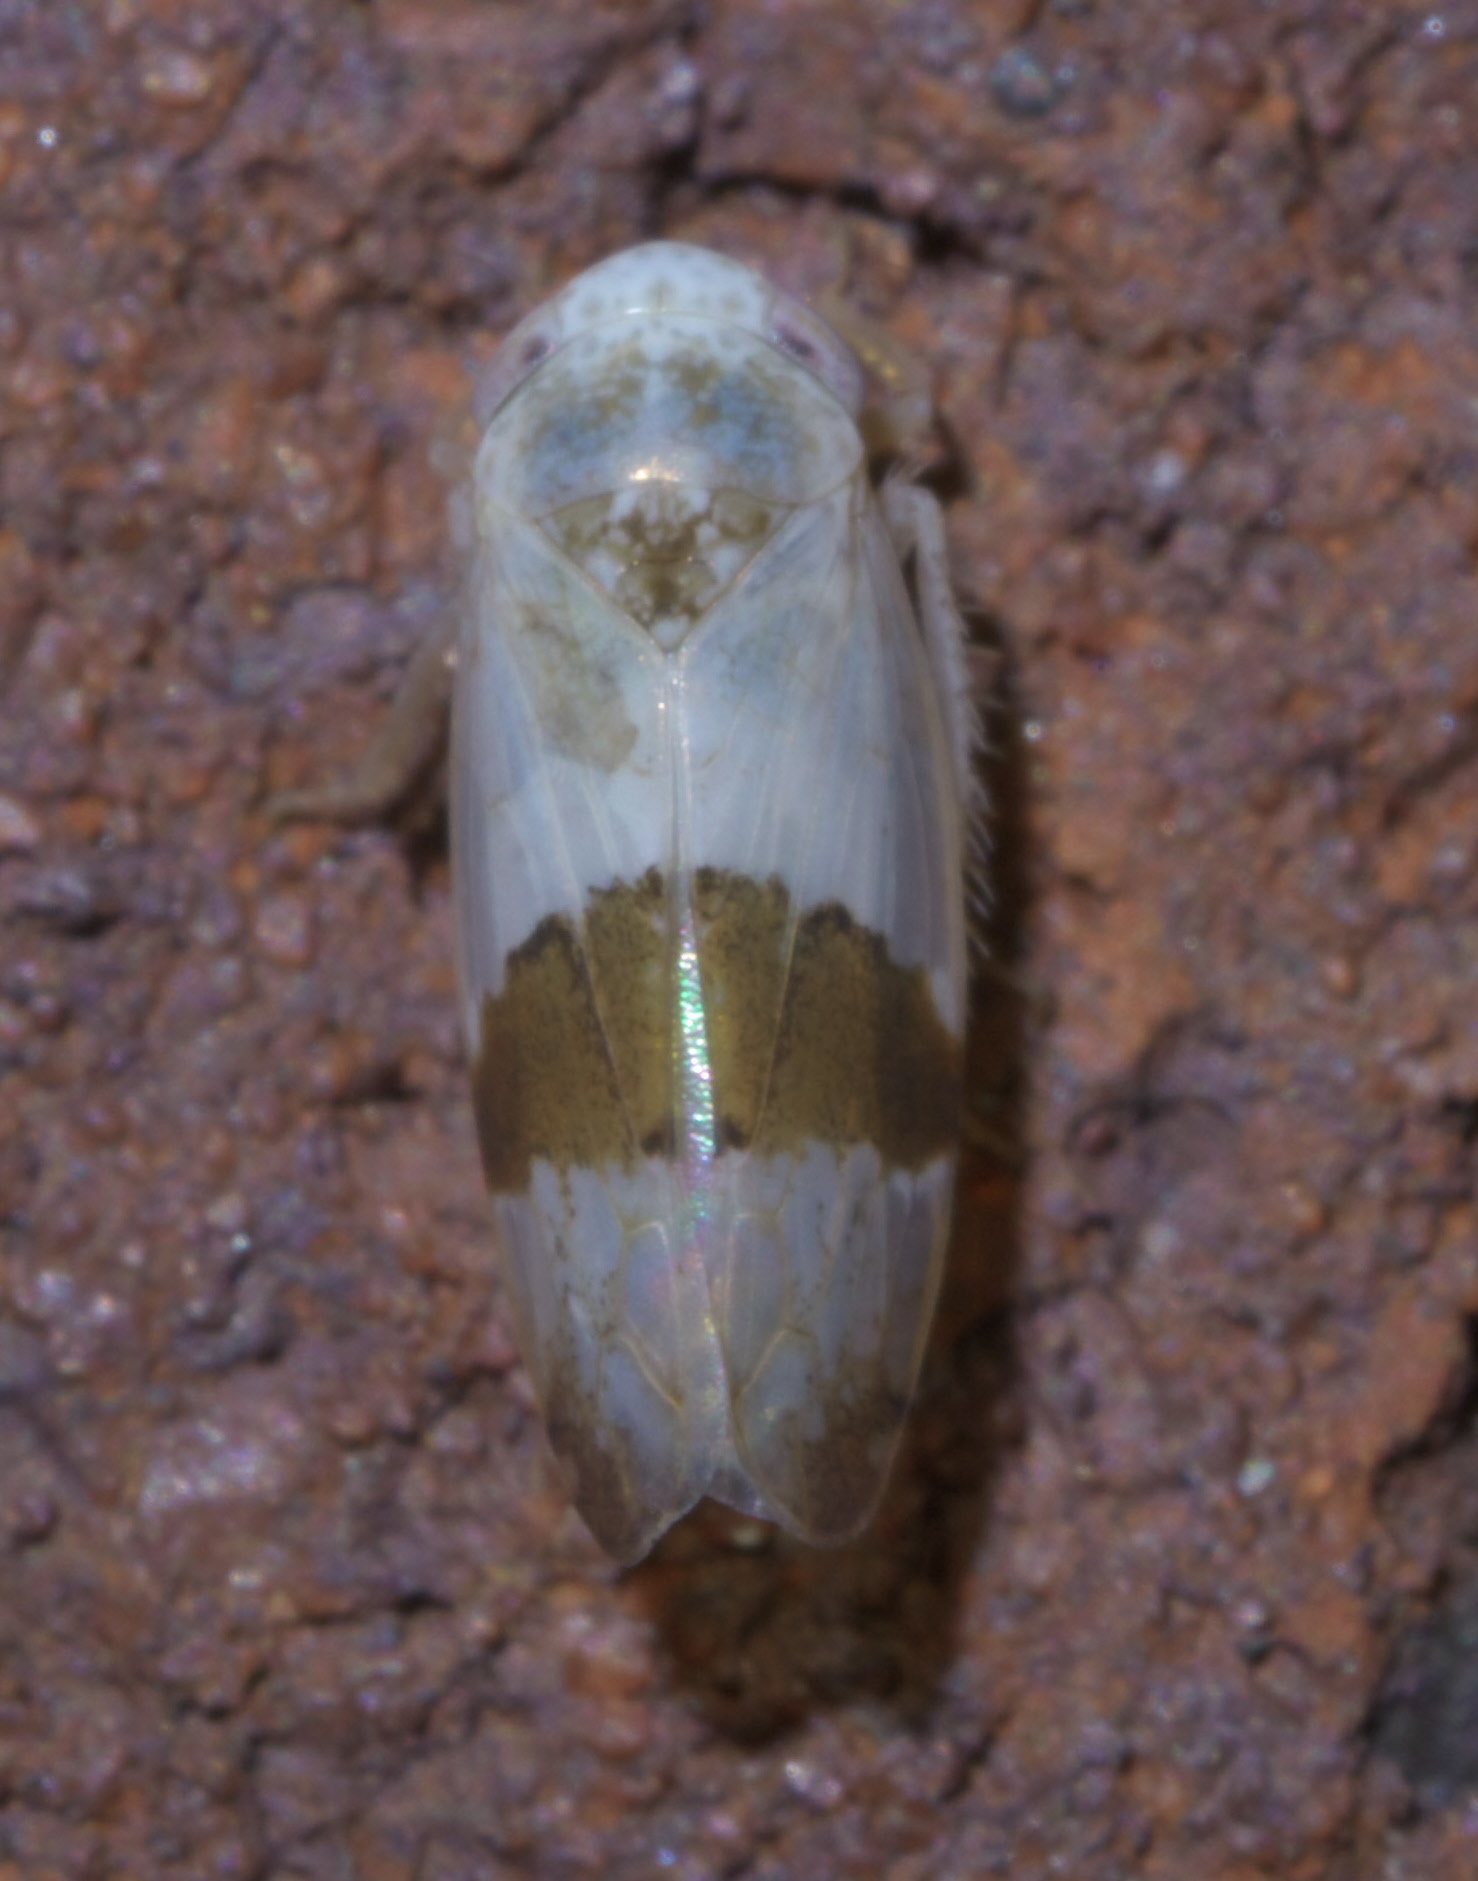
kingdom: Animalia
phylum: Arthropoda
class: Insecta
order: Hemiptera
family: Cicadellidae
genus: Norvellina
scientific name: Norvellina seminuda
